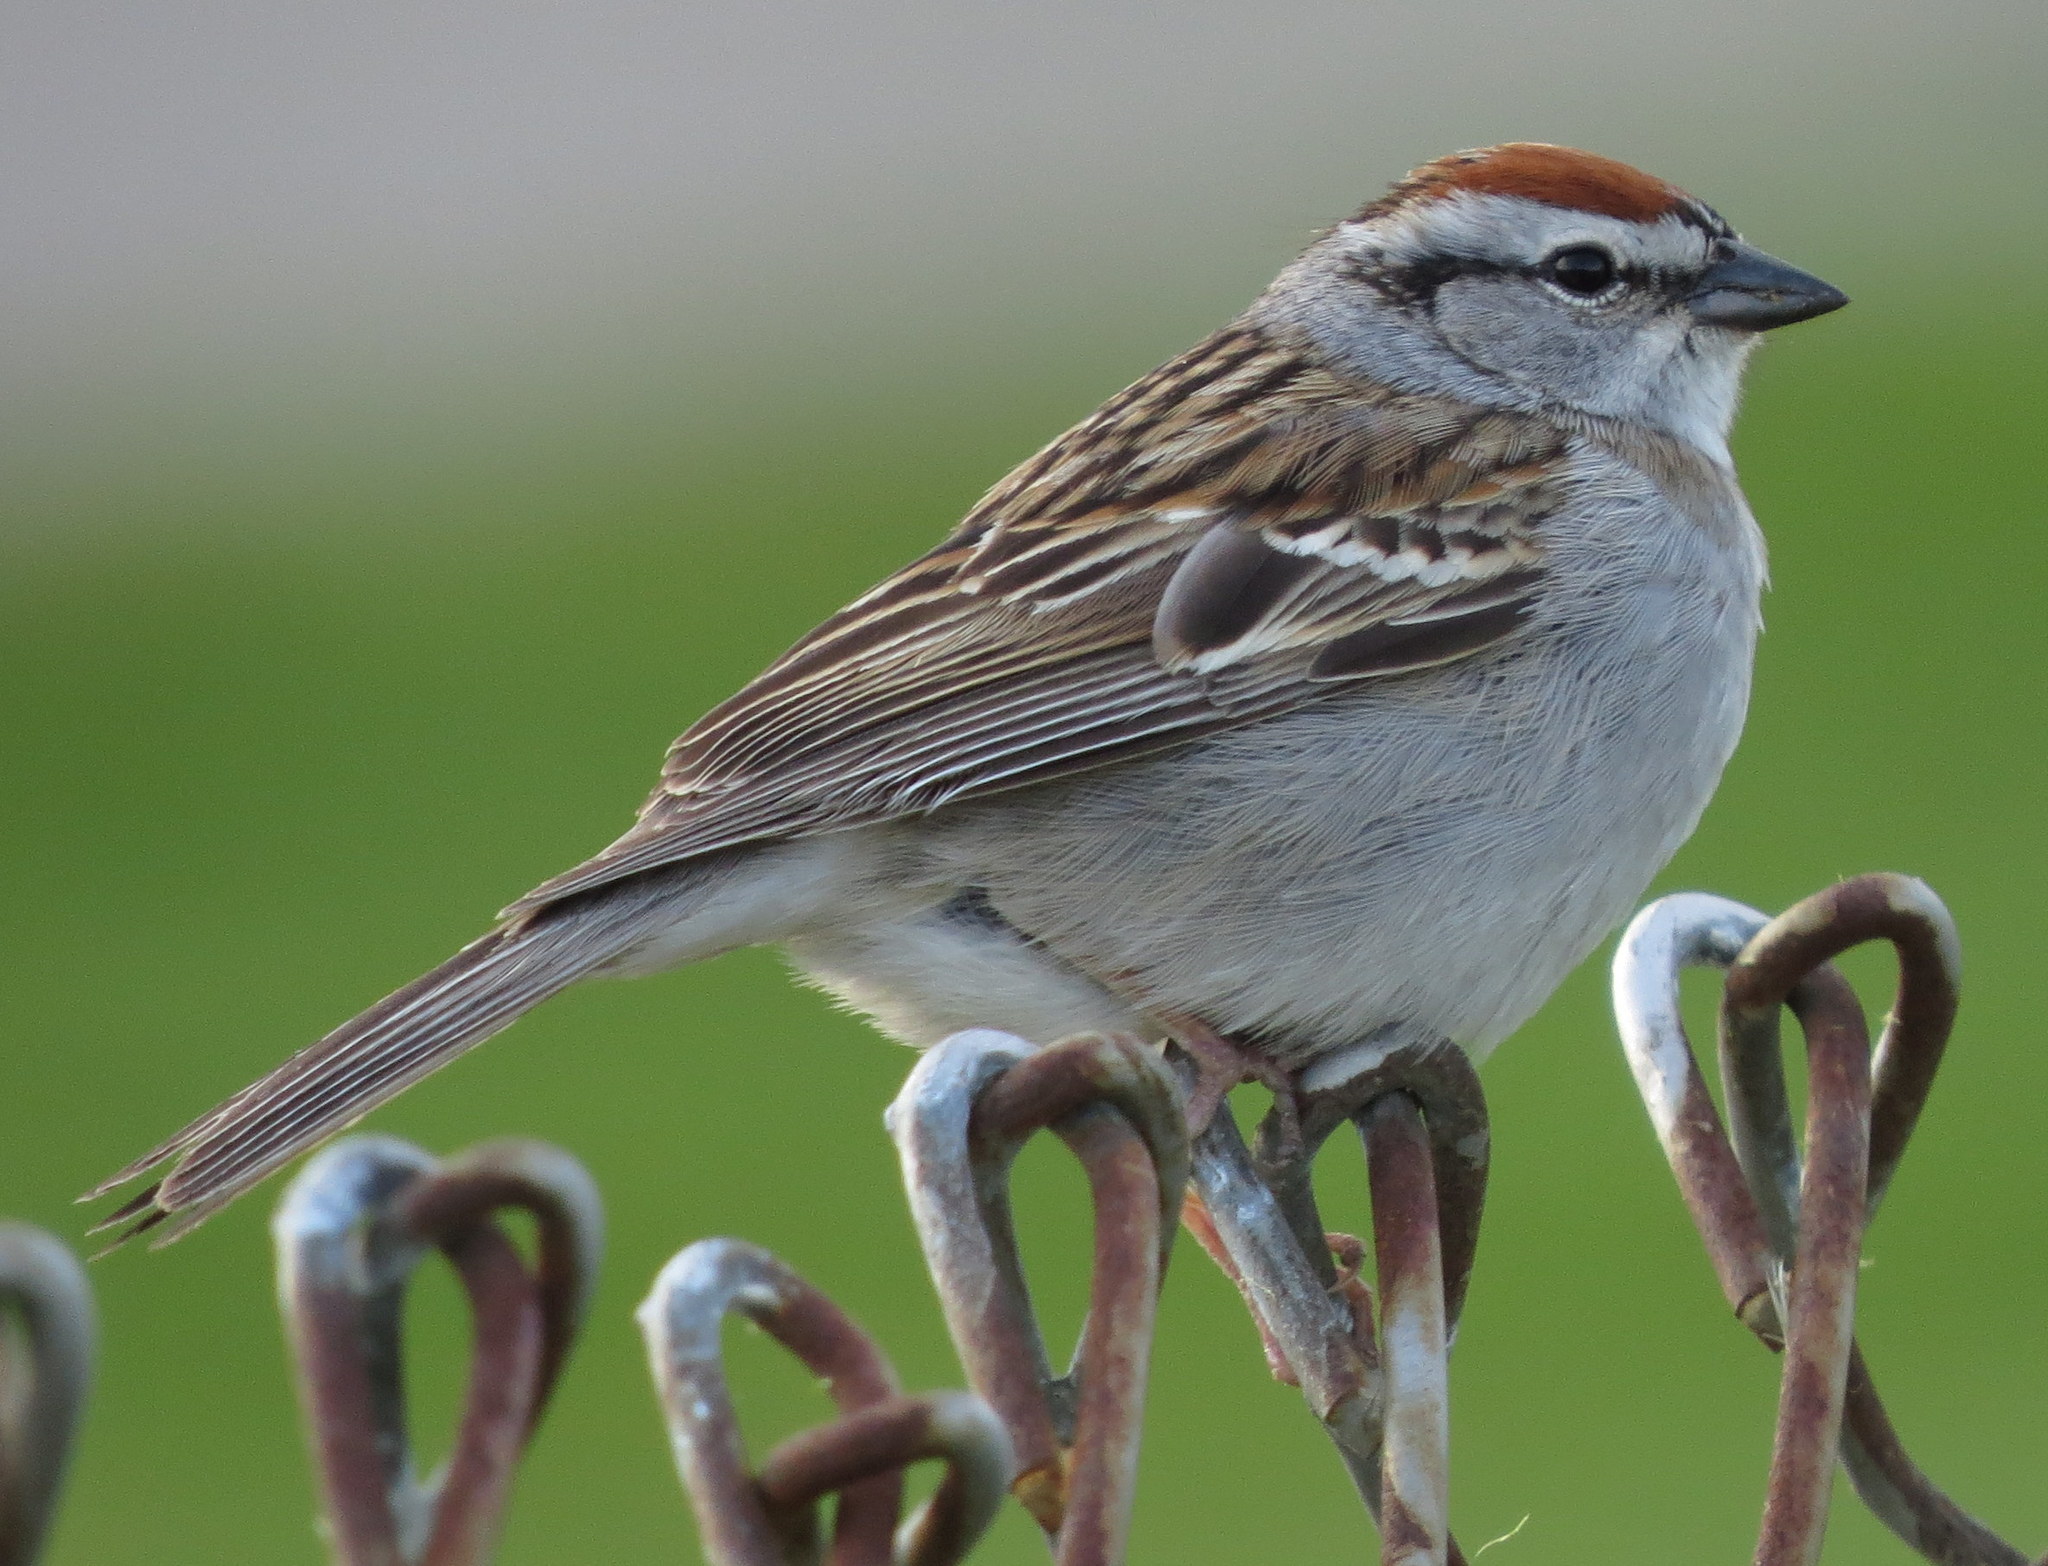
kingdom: Animalia
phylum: Chordata
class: Aves
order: Passeriformes
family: Passerellidae
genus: Spizella
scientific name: Spizella passerina
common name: Chipping sparrow
